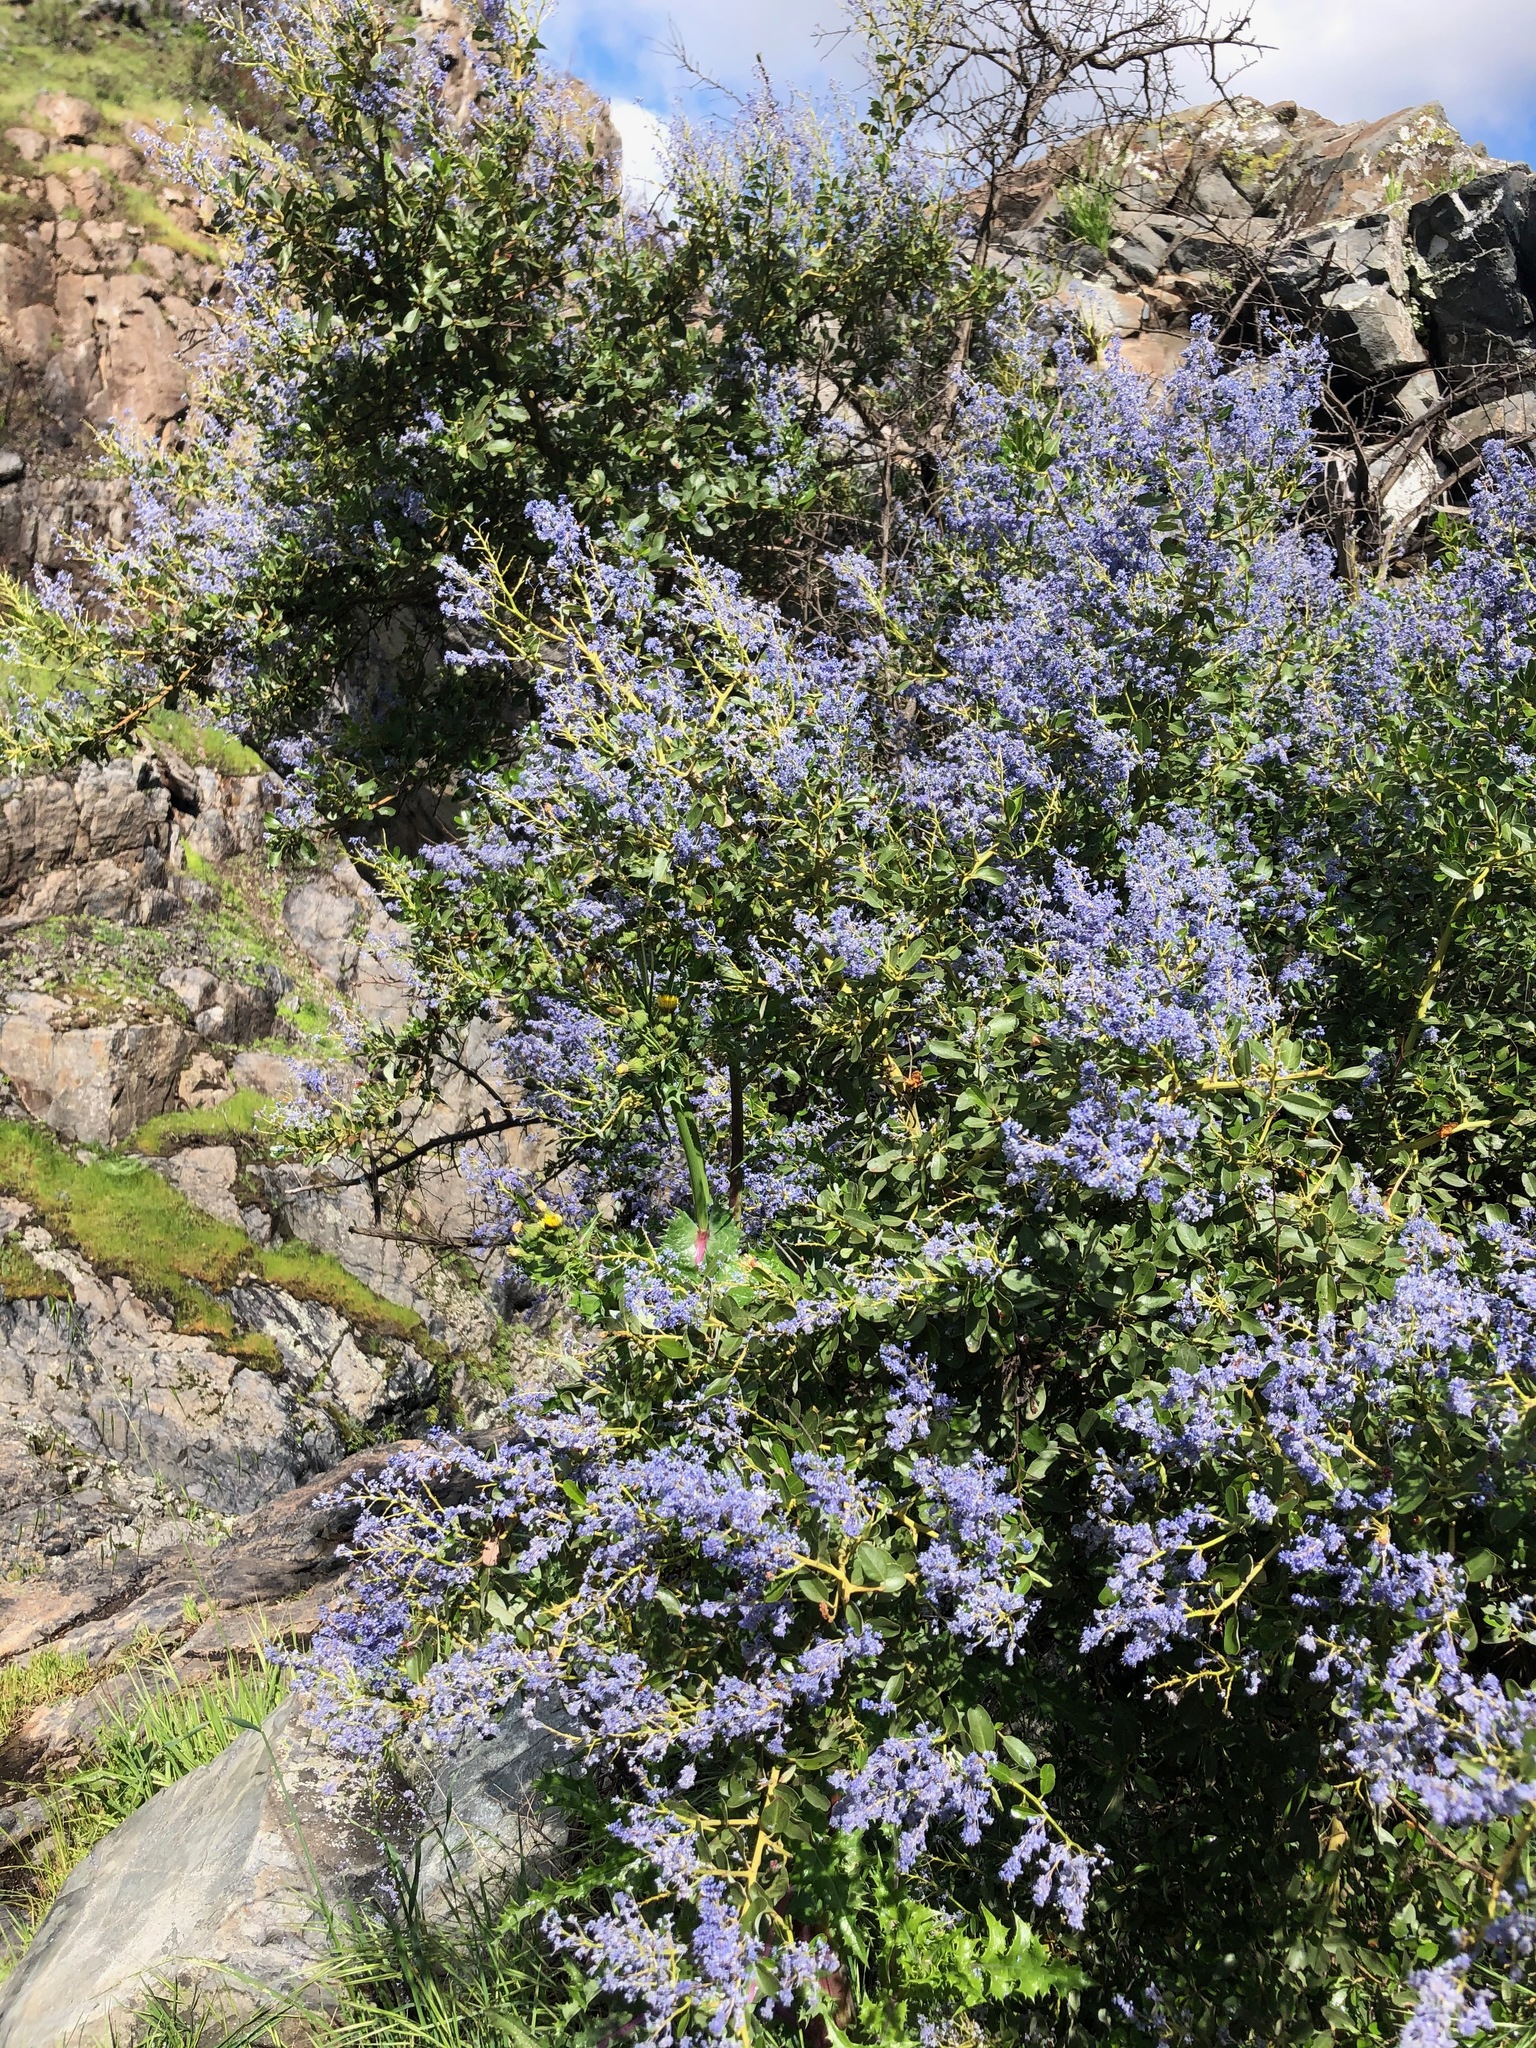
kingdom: Plantae
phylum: Tracheophyta
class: Magnoliopsida
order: Rosales
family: Rhamnaceae
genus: Ceanothus
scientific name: Ceanothus spinosus
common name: Greenbark whitethorn
